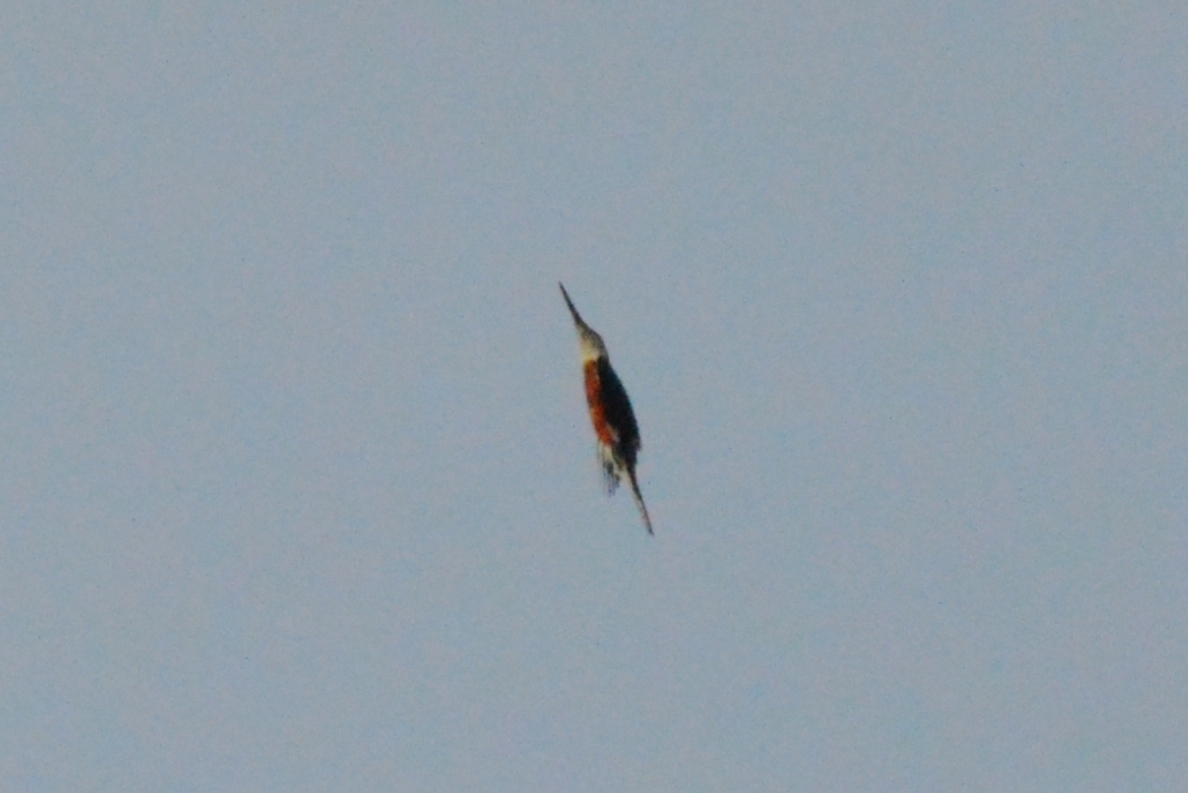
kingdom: Animalia
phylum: Chordata
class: Aves
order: Coraciiformes
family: Alcedinidae
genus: Megaceryle
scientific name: Megaceryle torquata
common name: Ringed kingfisher
